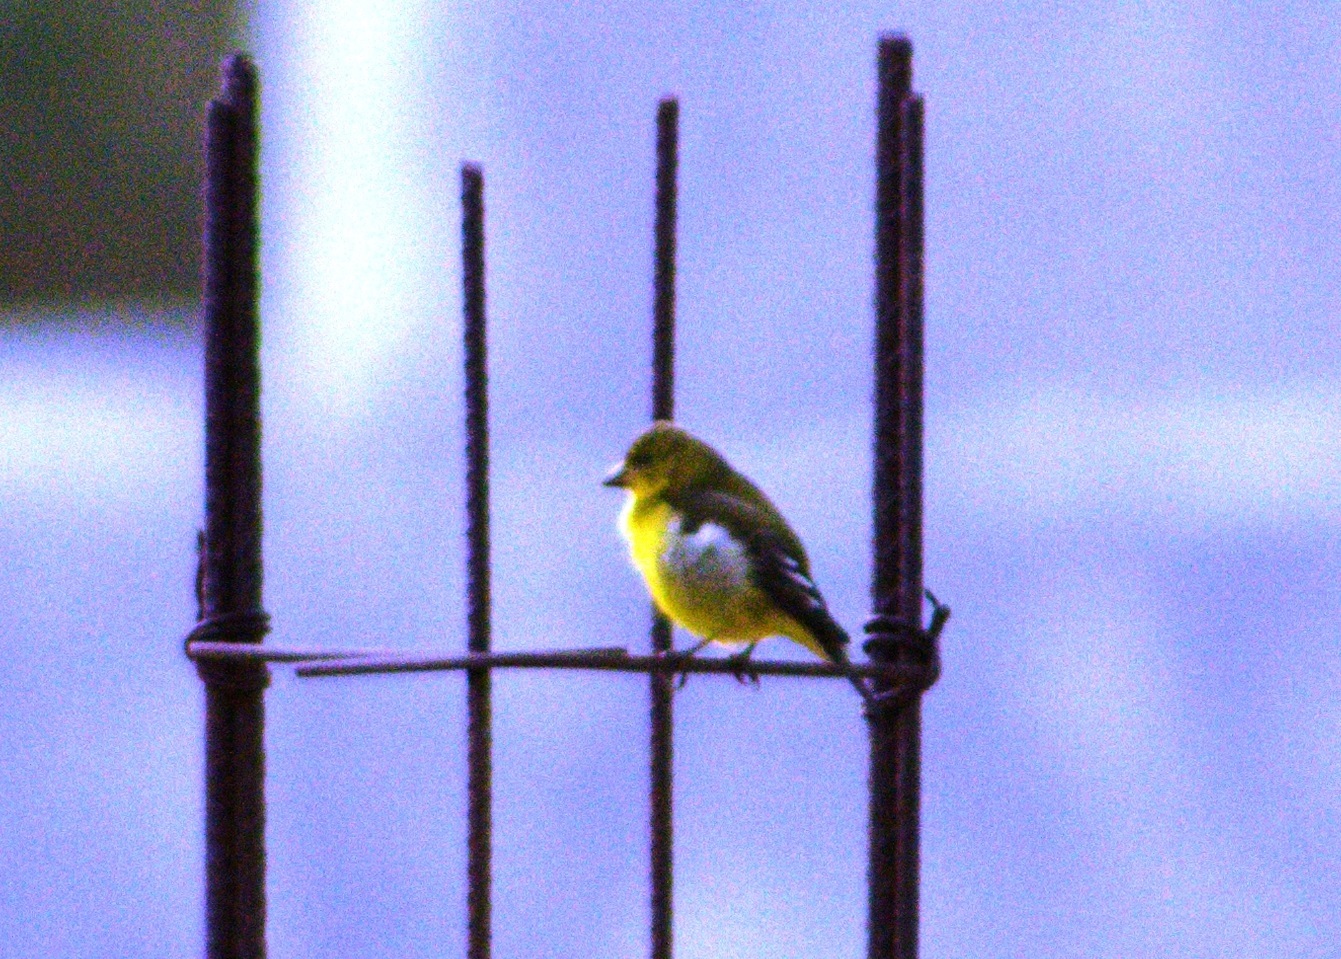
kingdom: Animalia
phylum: Chordata
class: Aves
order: Passeriformes
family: Fringillidae
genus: Spinus
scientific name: Spinus psaltria
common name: Lesser goldfinch
